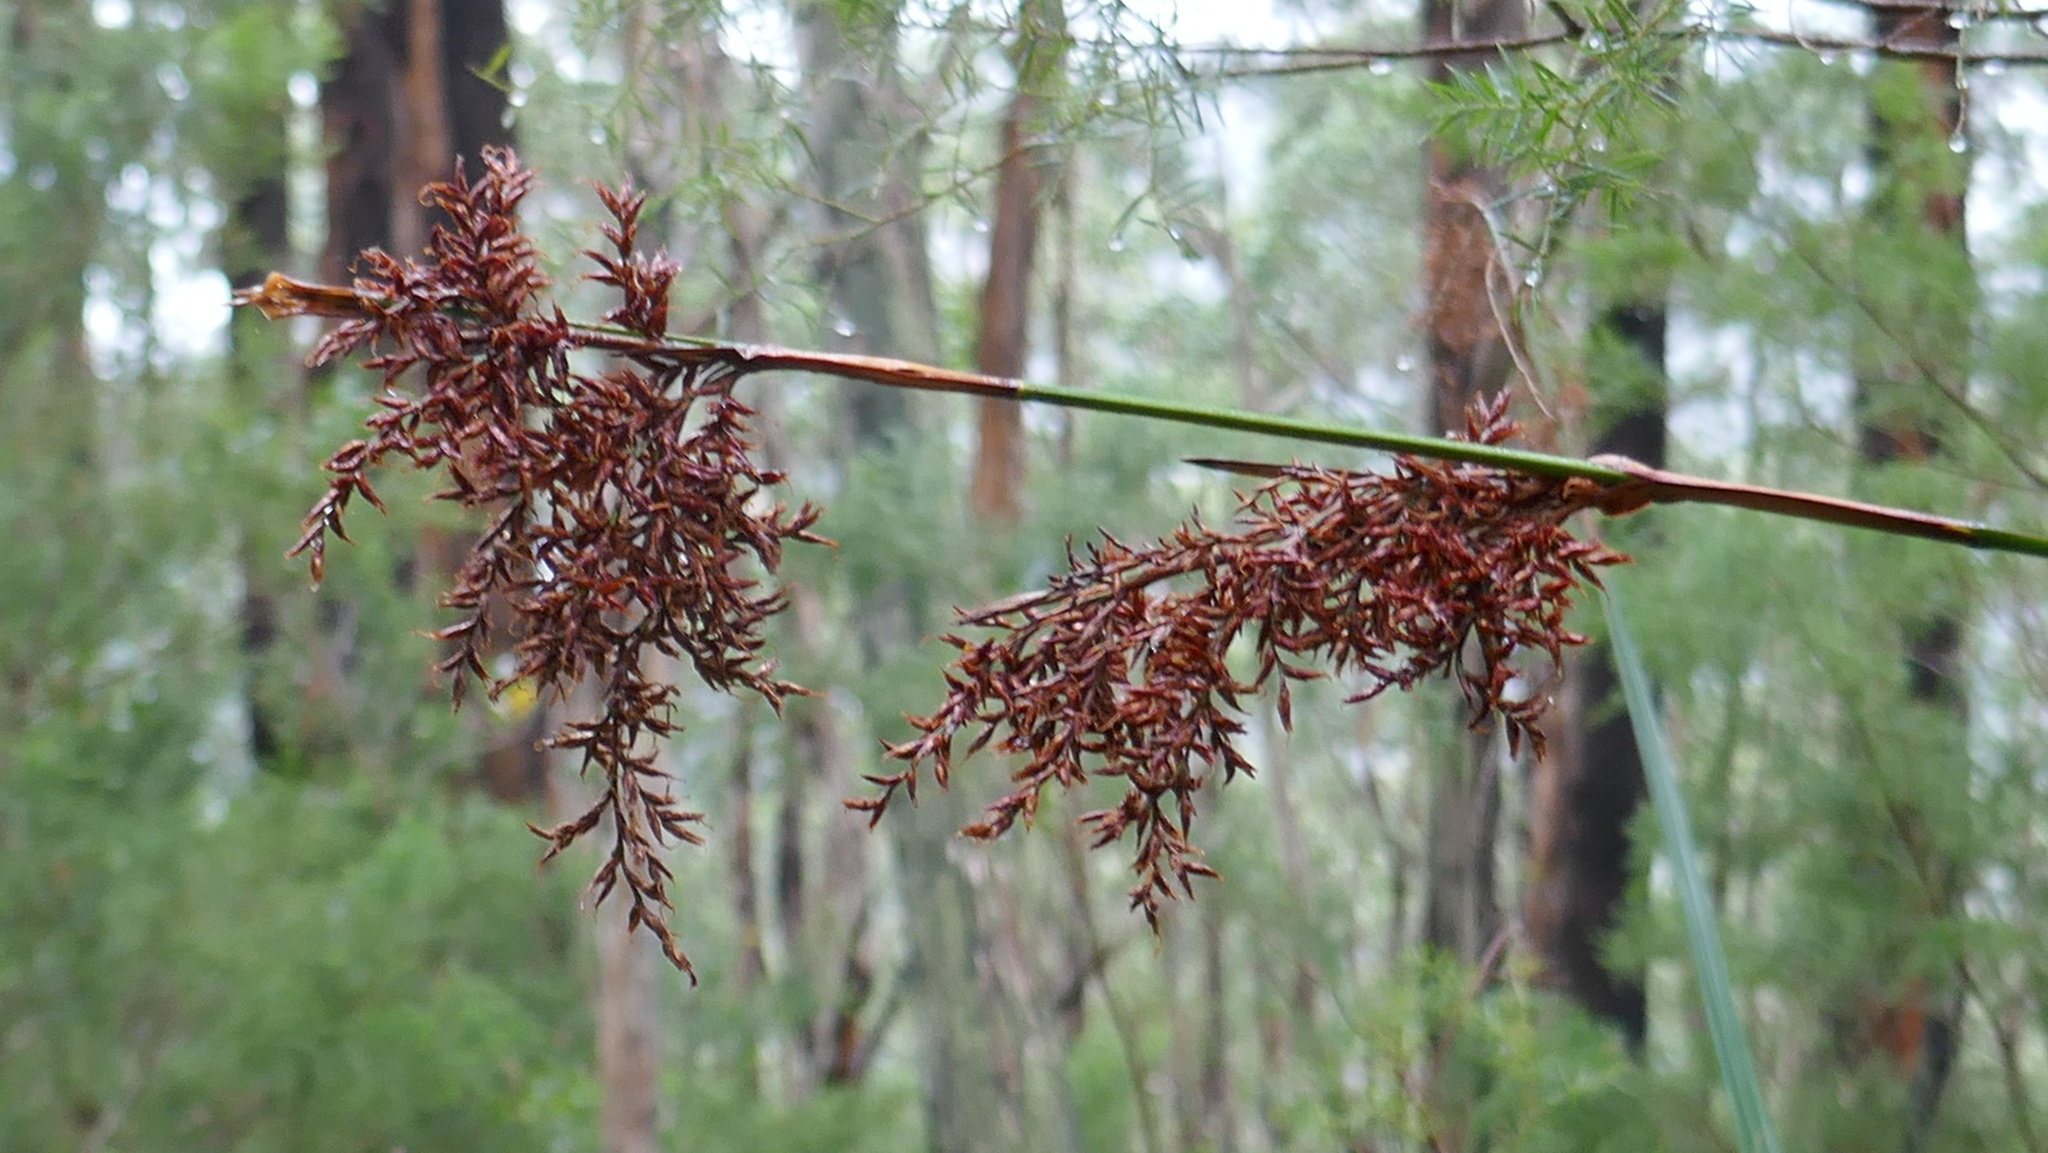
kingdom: Plantae
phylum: Tracheophyta
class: Liliopsida
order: Poales
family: Cyperaceae
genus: Lepidosperma
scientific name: Lepidosperma elatius
